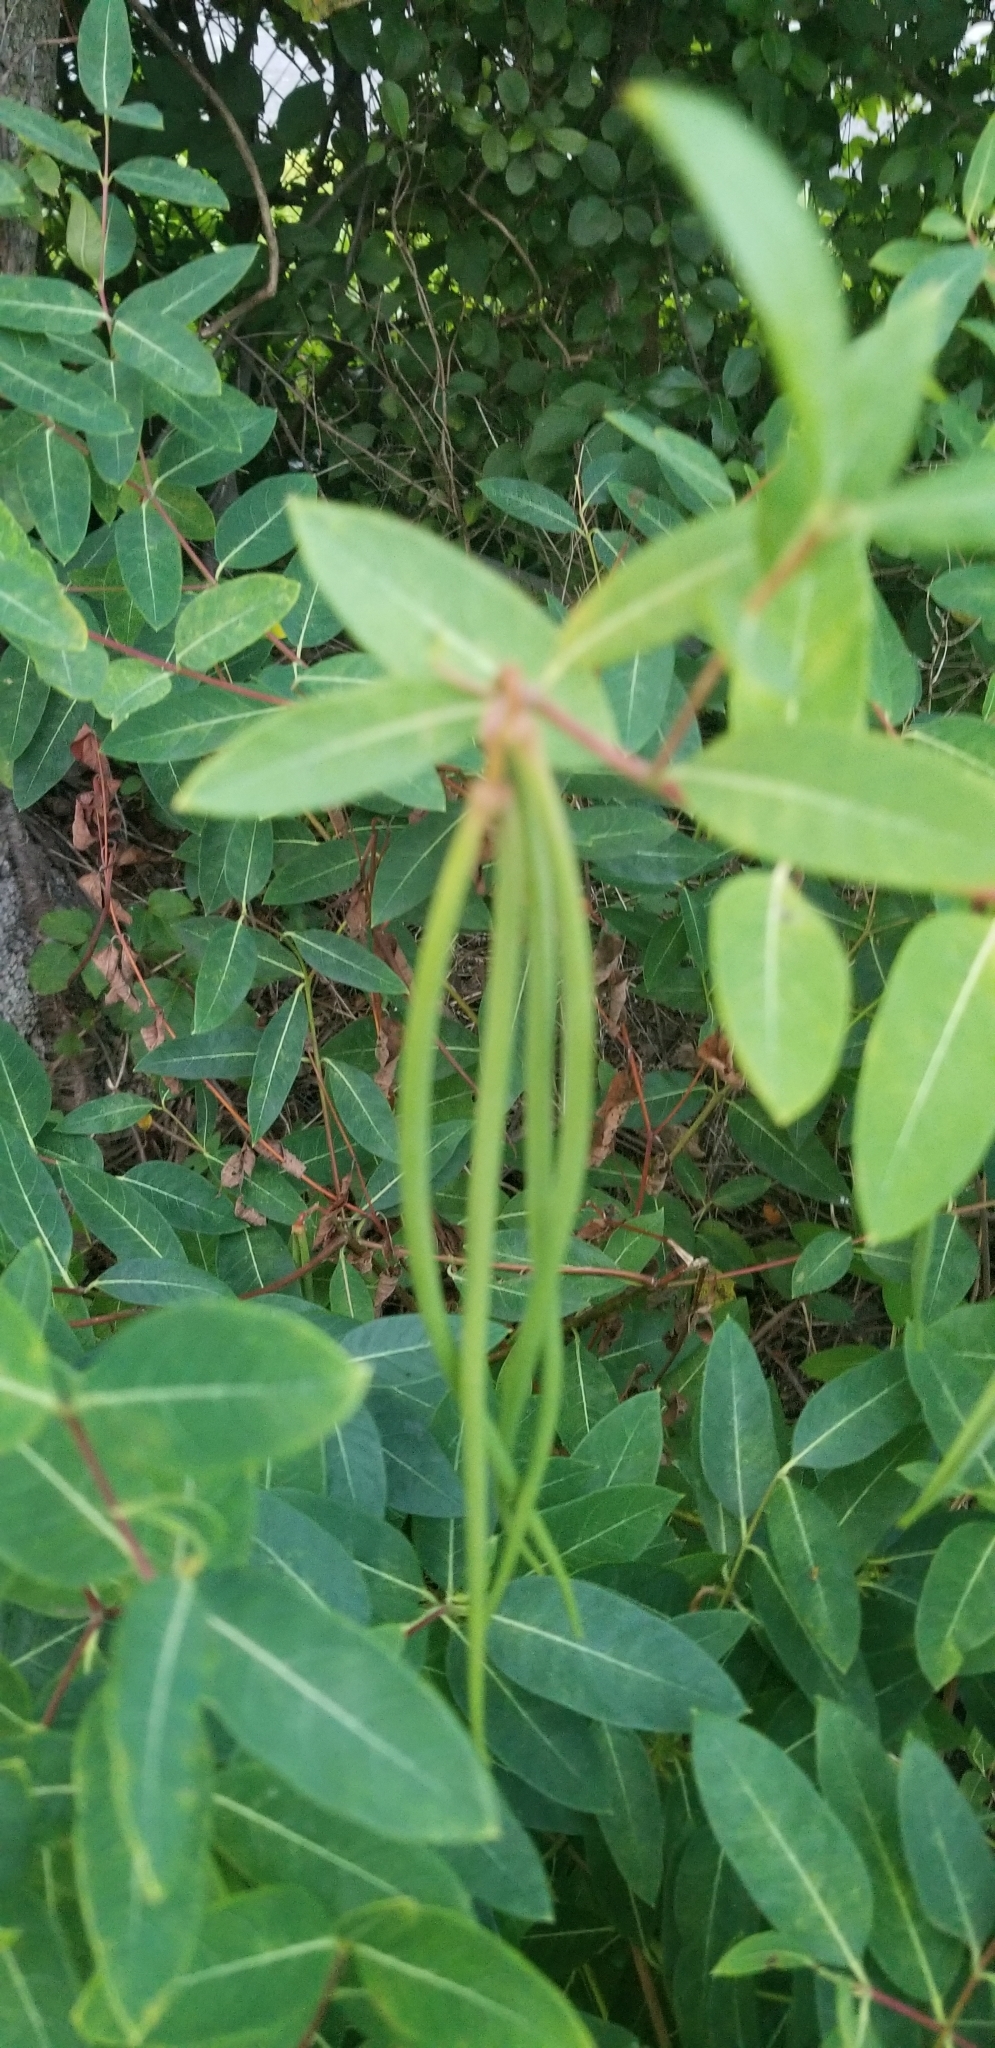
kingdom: Plantae
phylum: Tracheophyta
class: Magnoliopsida
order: Gentianales
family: Apocynaceae
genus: Apocynum
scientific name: Apocynum cannabinum
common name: Hemp dogbane
